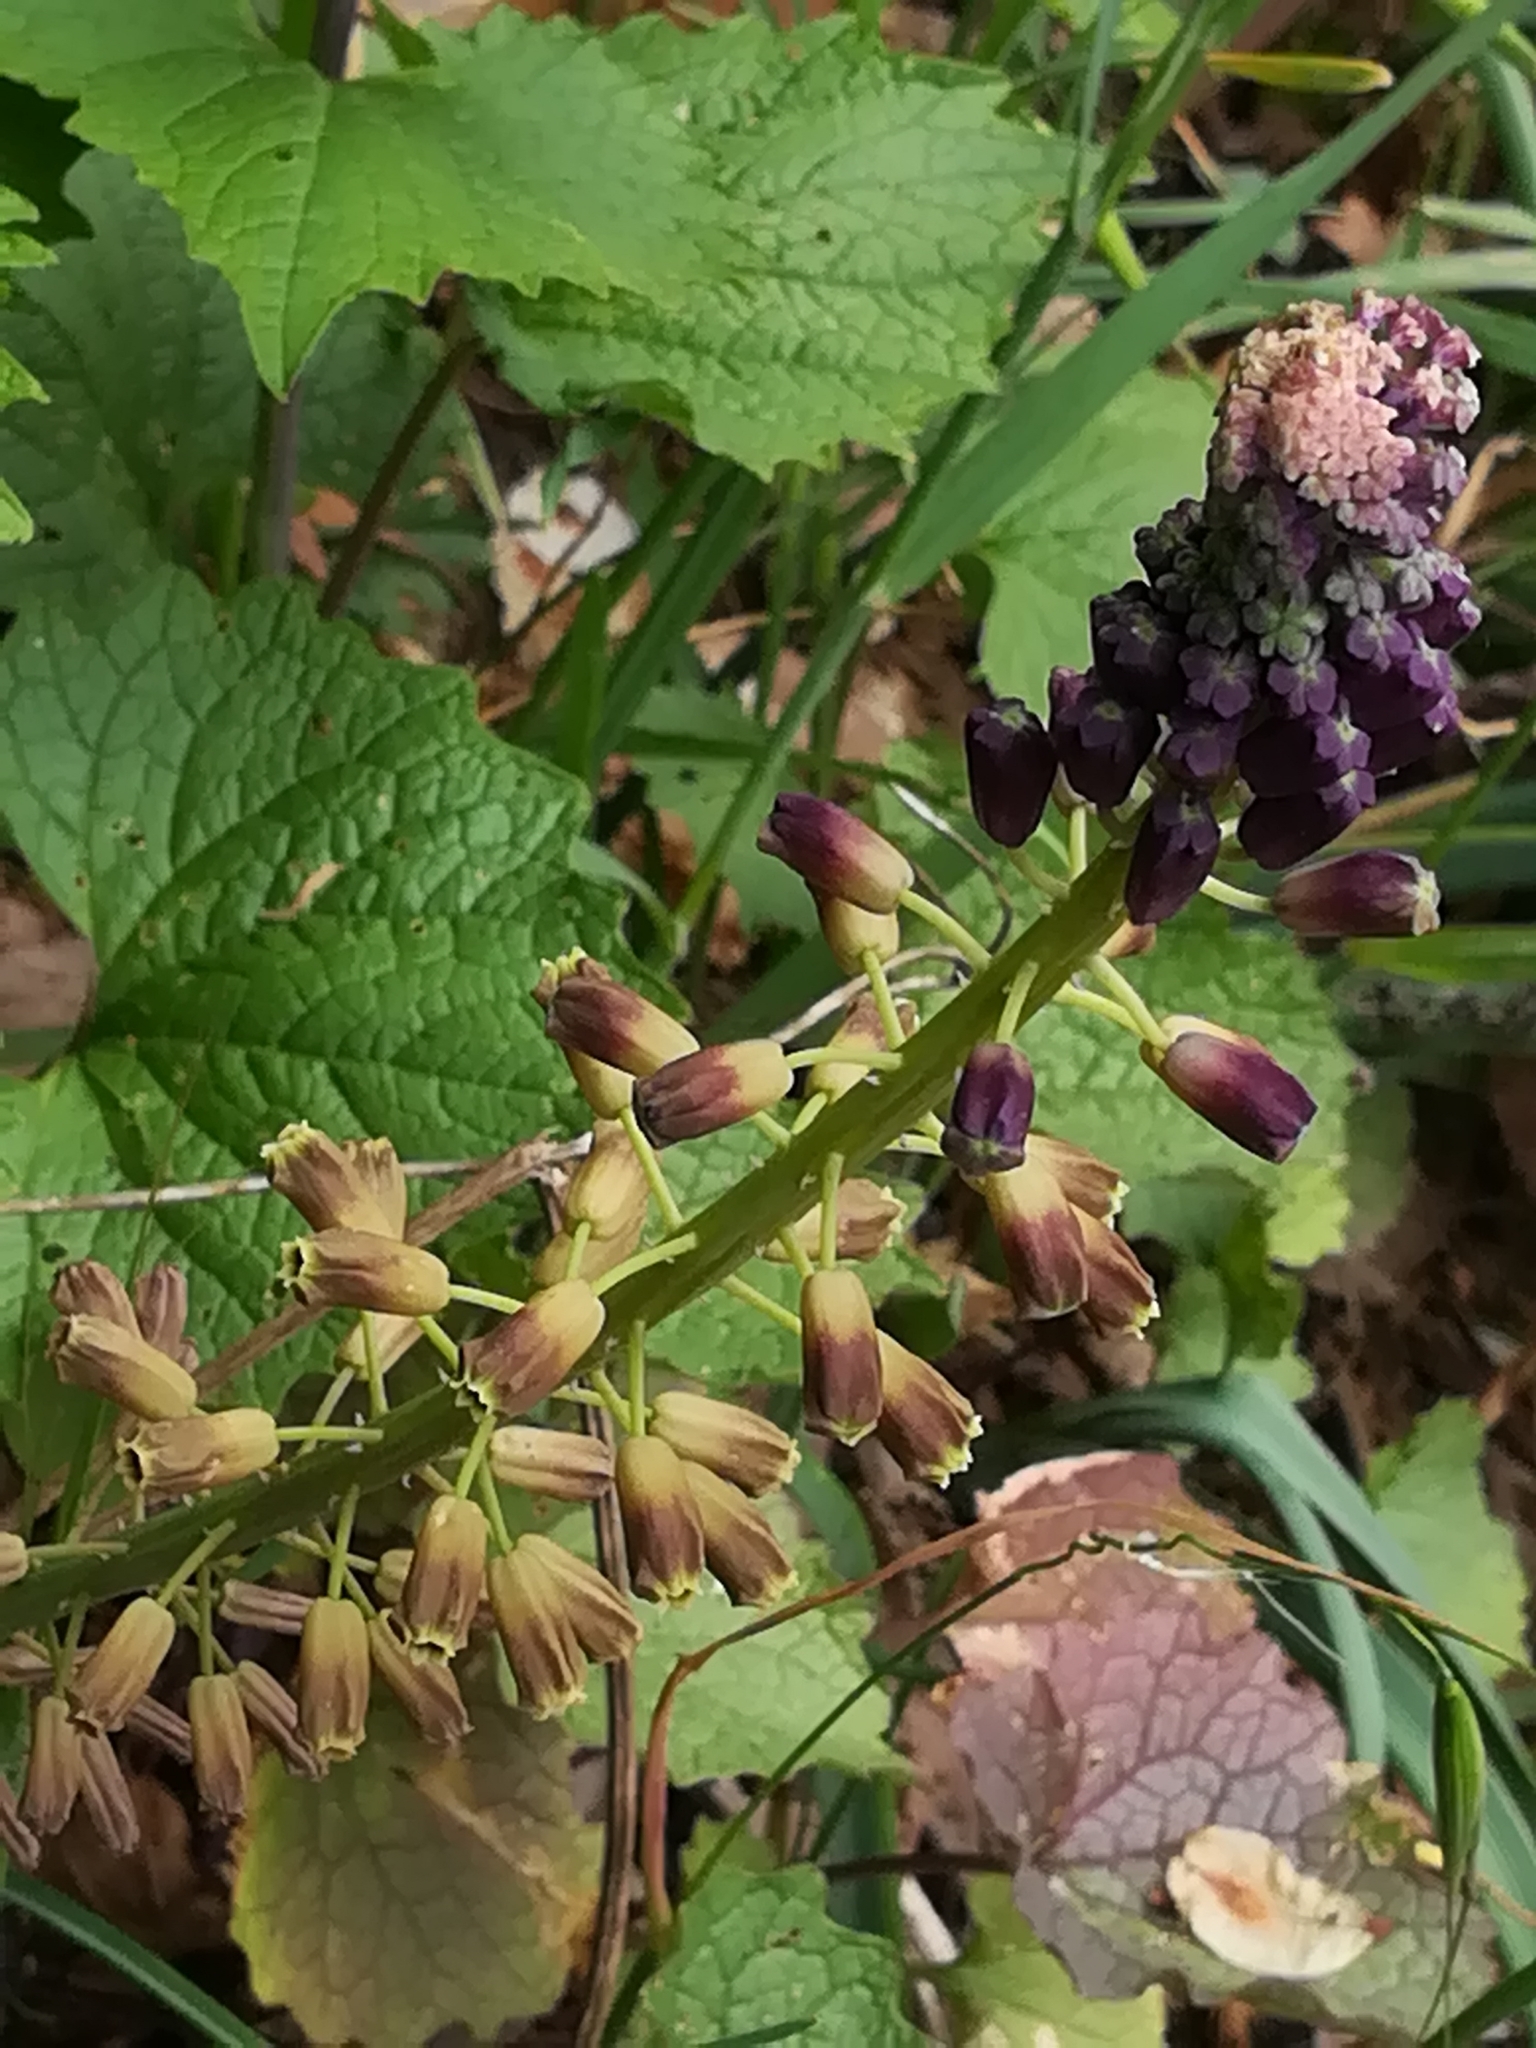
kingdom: Plantae
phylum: Tracheophyta
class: Liliopsida
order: Asparagales
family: Asparagaceae
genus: Muscari
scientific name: Muscari comosum
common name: Tassel hyacinth
